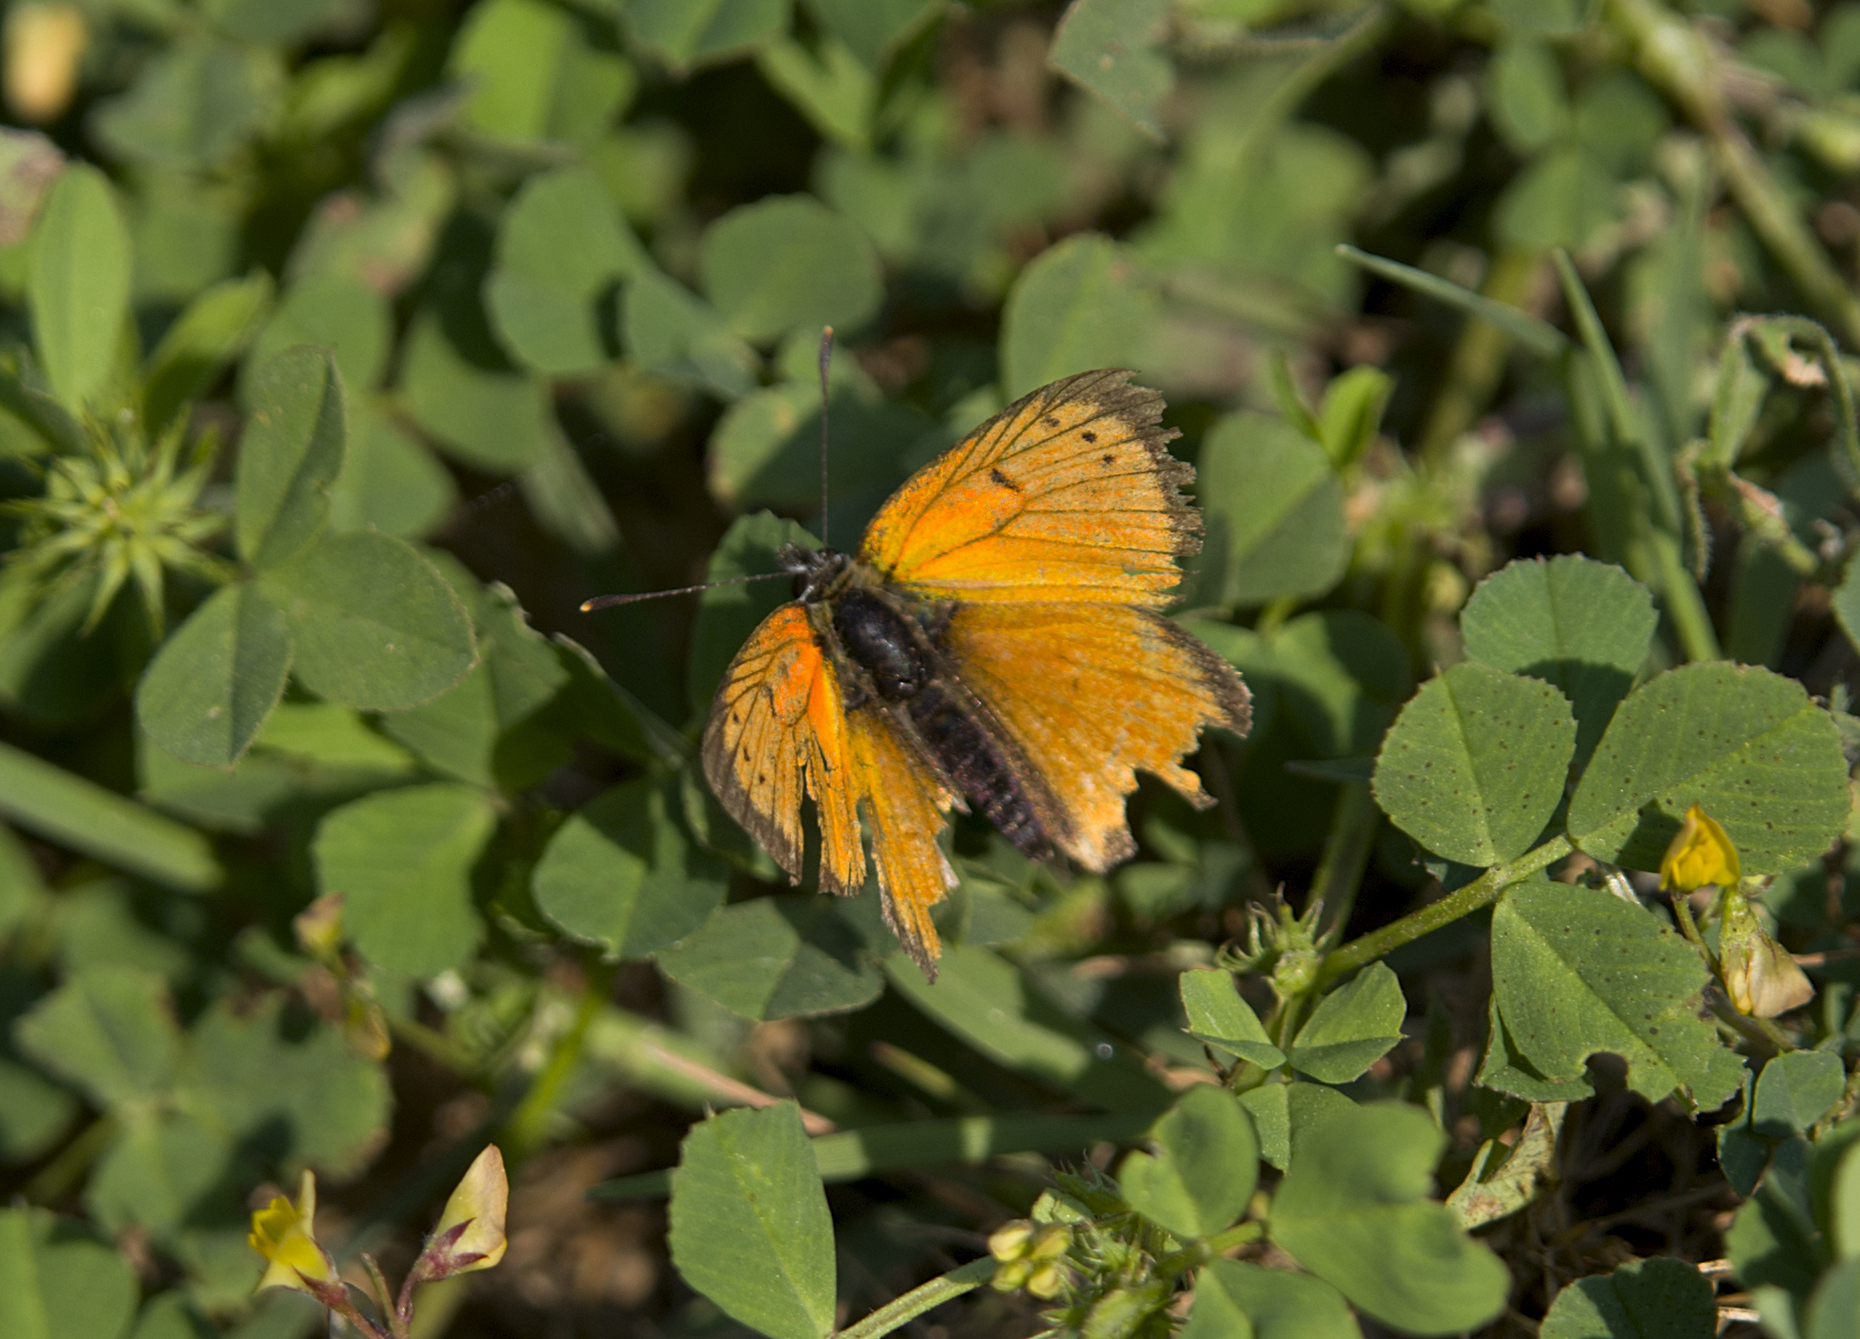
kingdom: Animalia
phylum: Arthropoda
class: Insecta
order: Lepidoptera
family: Lycaenidae
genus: Polyommatus
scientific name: Polyommatus ottomanus
